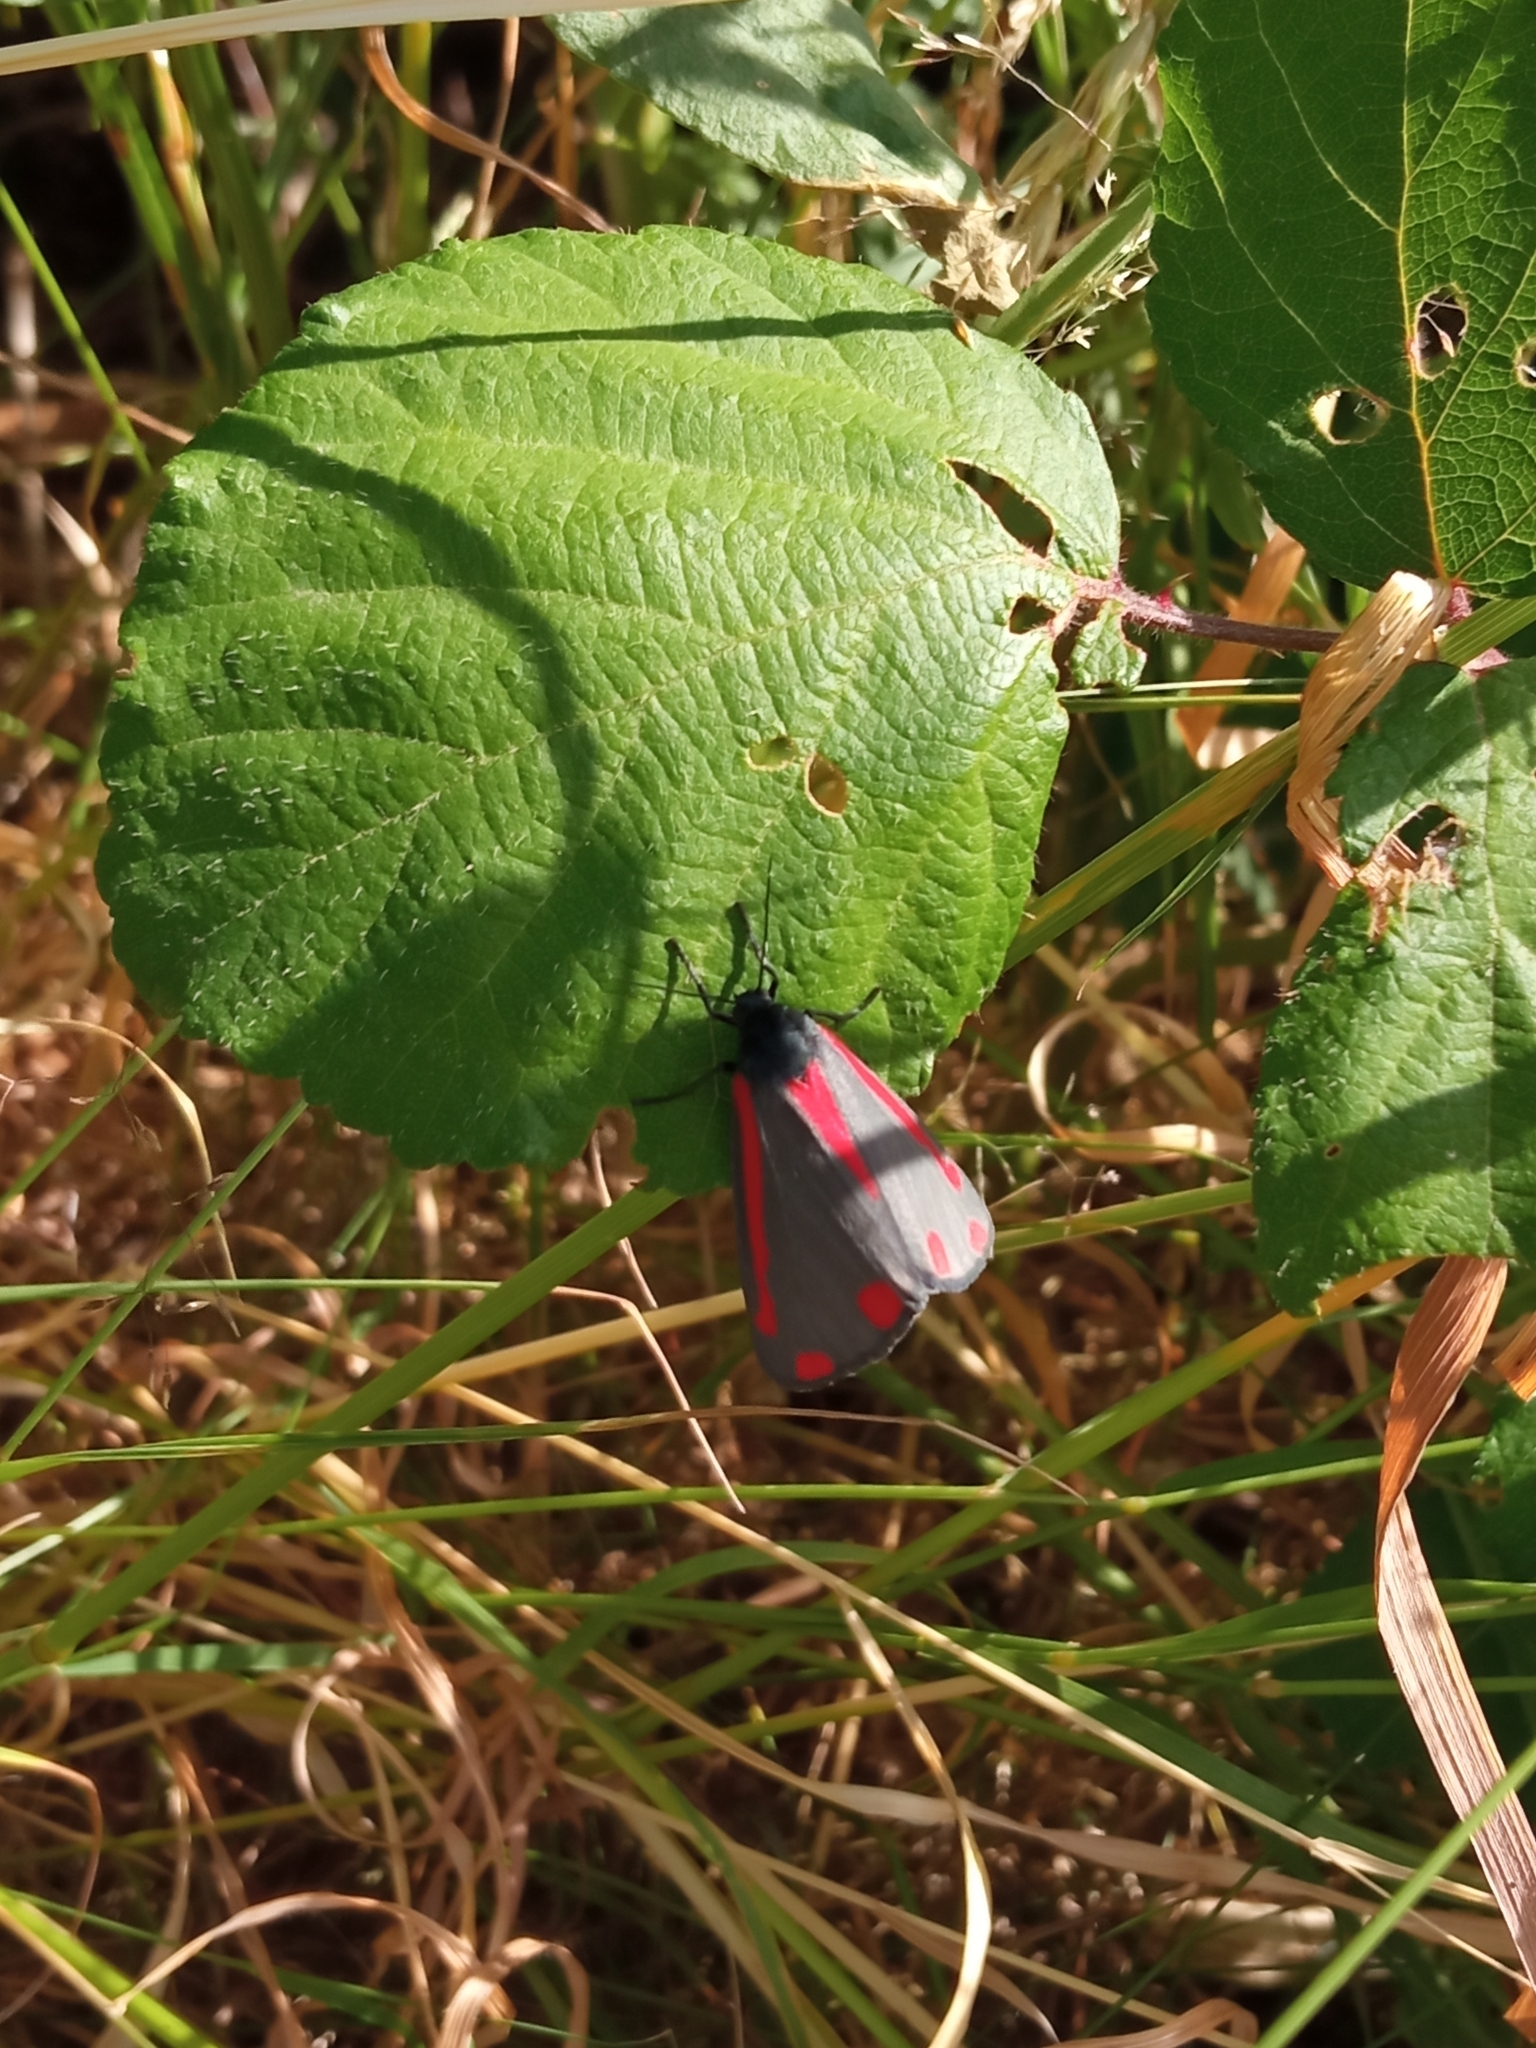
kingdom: Animalia
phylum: Arthropoda
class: Insecta
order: Lepidoptera
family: Erebidae
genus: Tyria
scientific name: Tyria jacobaeae
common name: Cinnabar
